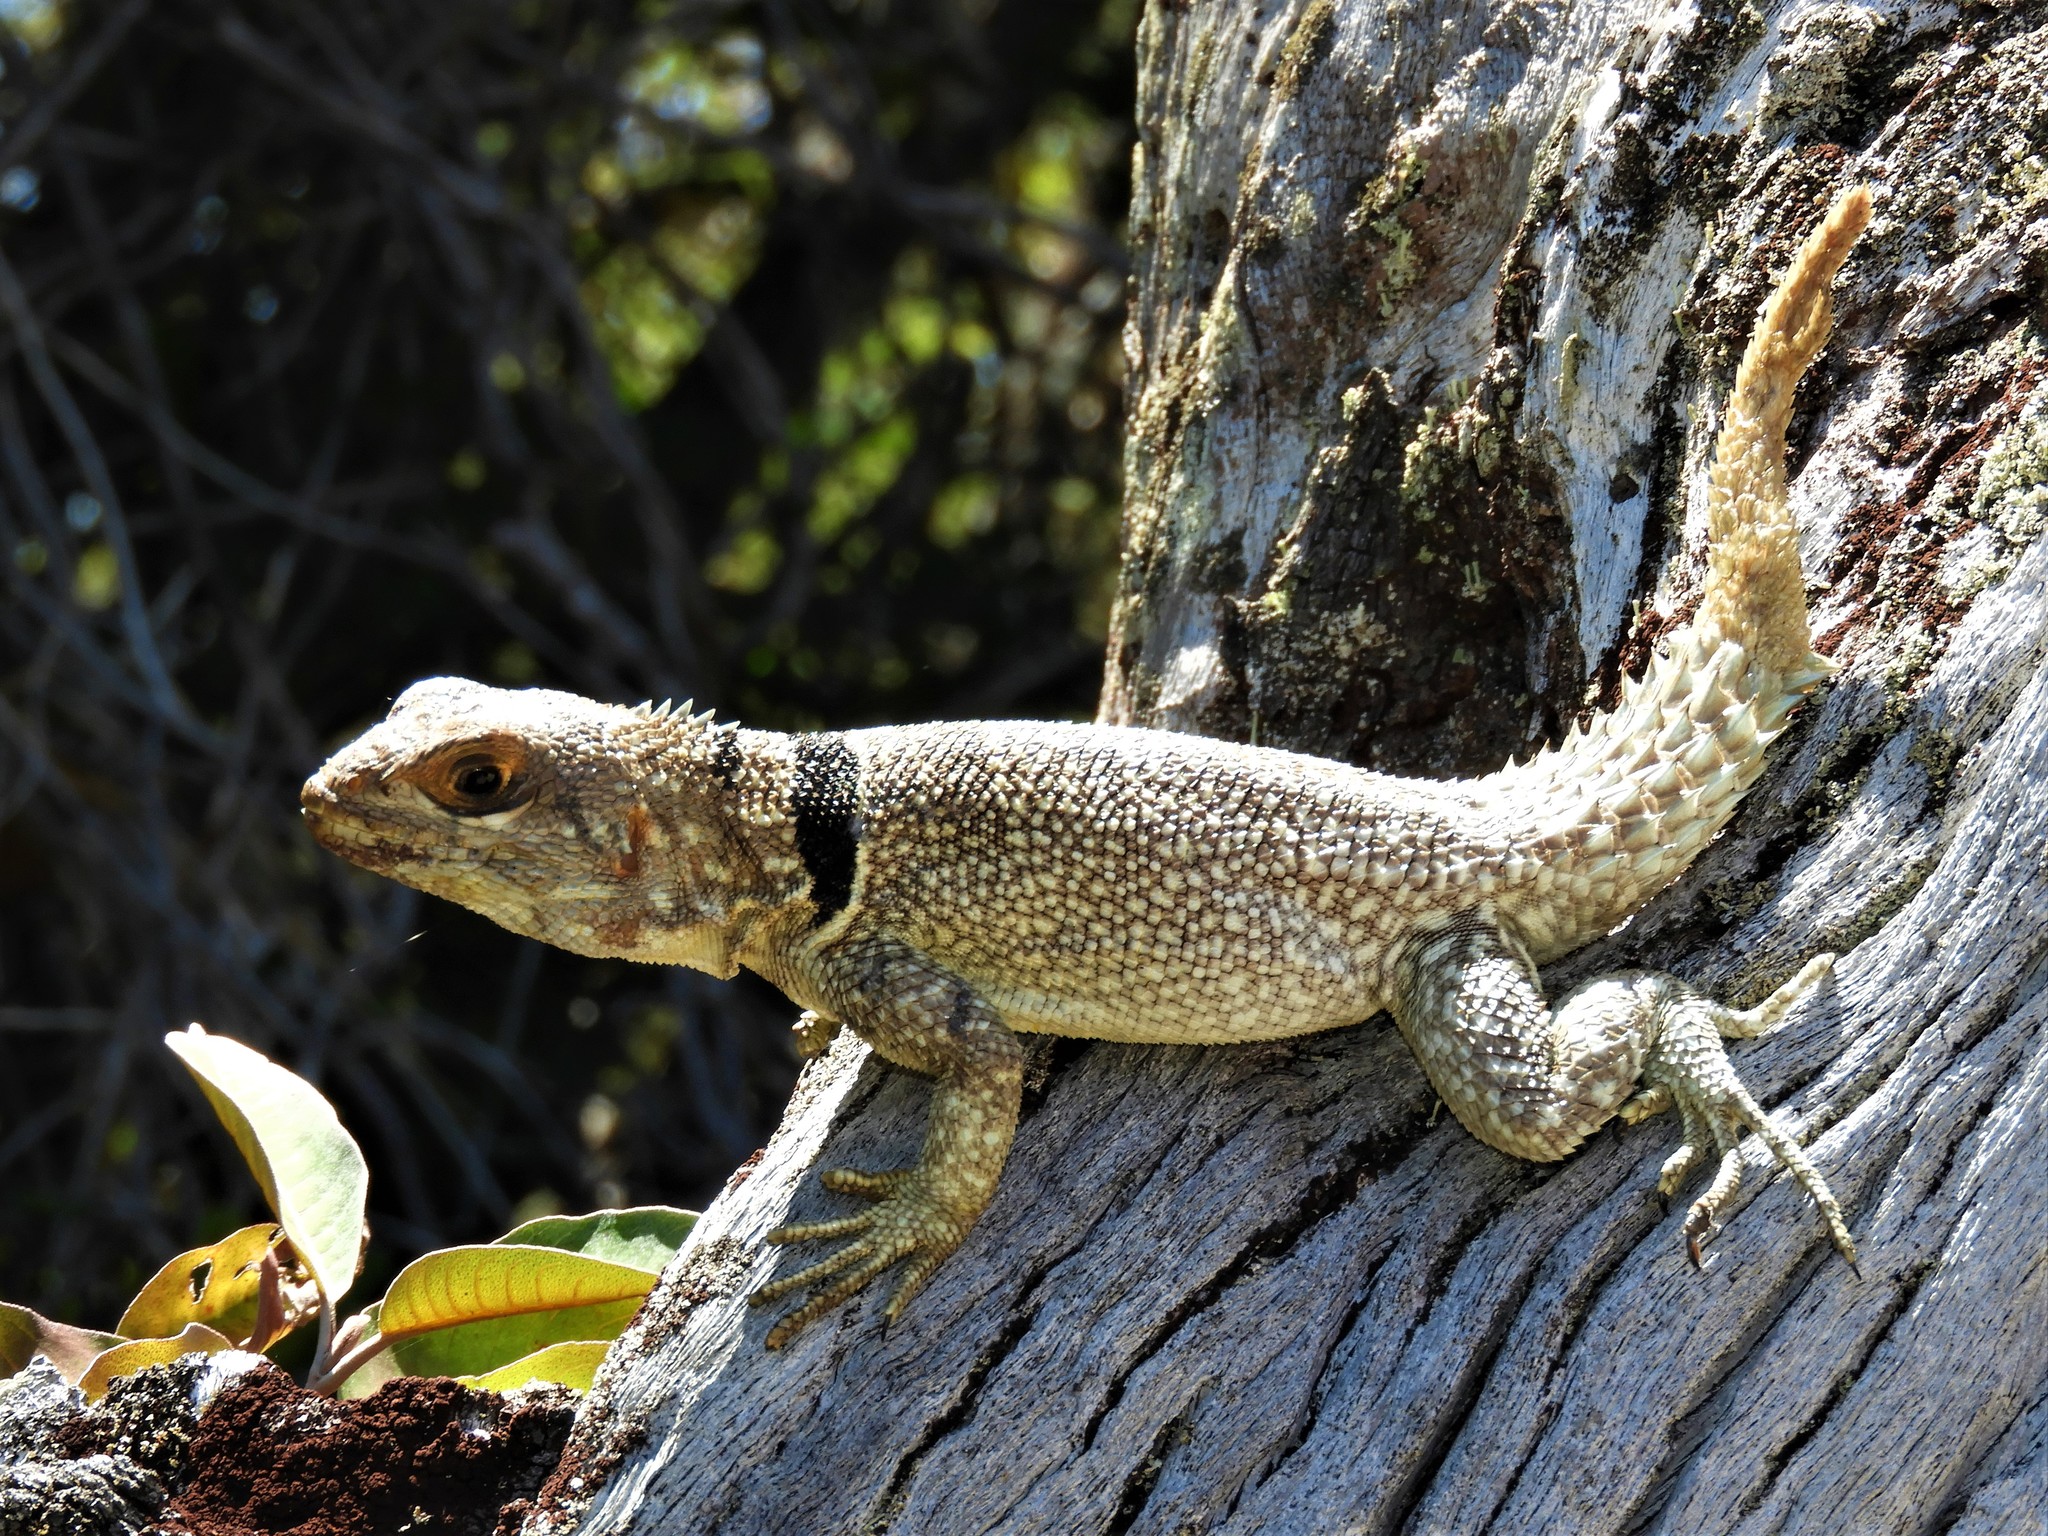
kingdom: Animalia
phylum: Chordata
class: Squamata
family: Opluridae
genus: Oplurus
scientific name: Oplurus cuvieri
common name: Cuvier's madagascar swift
